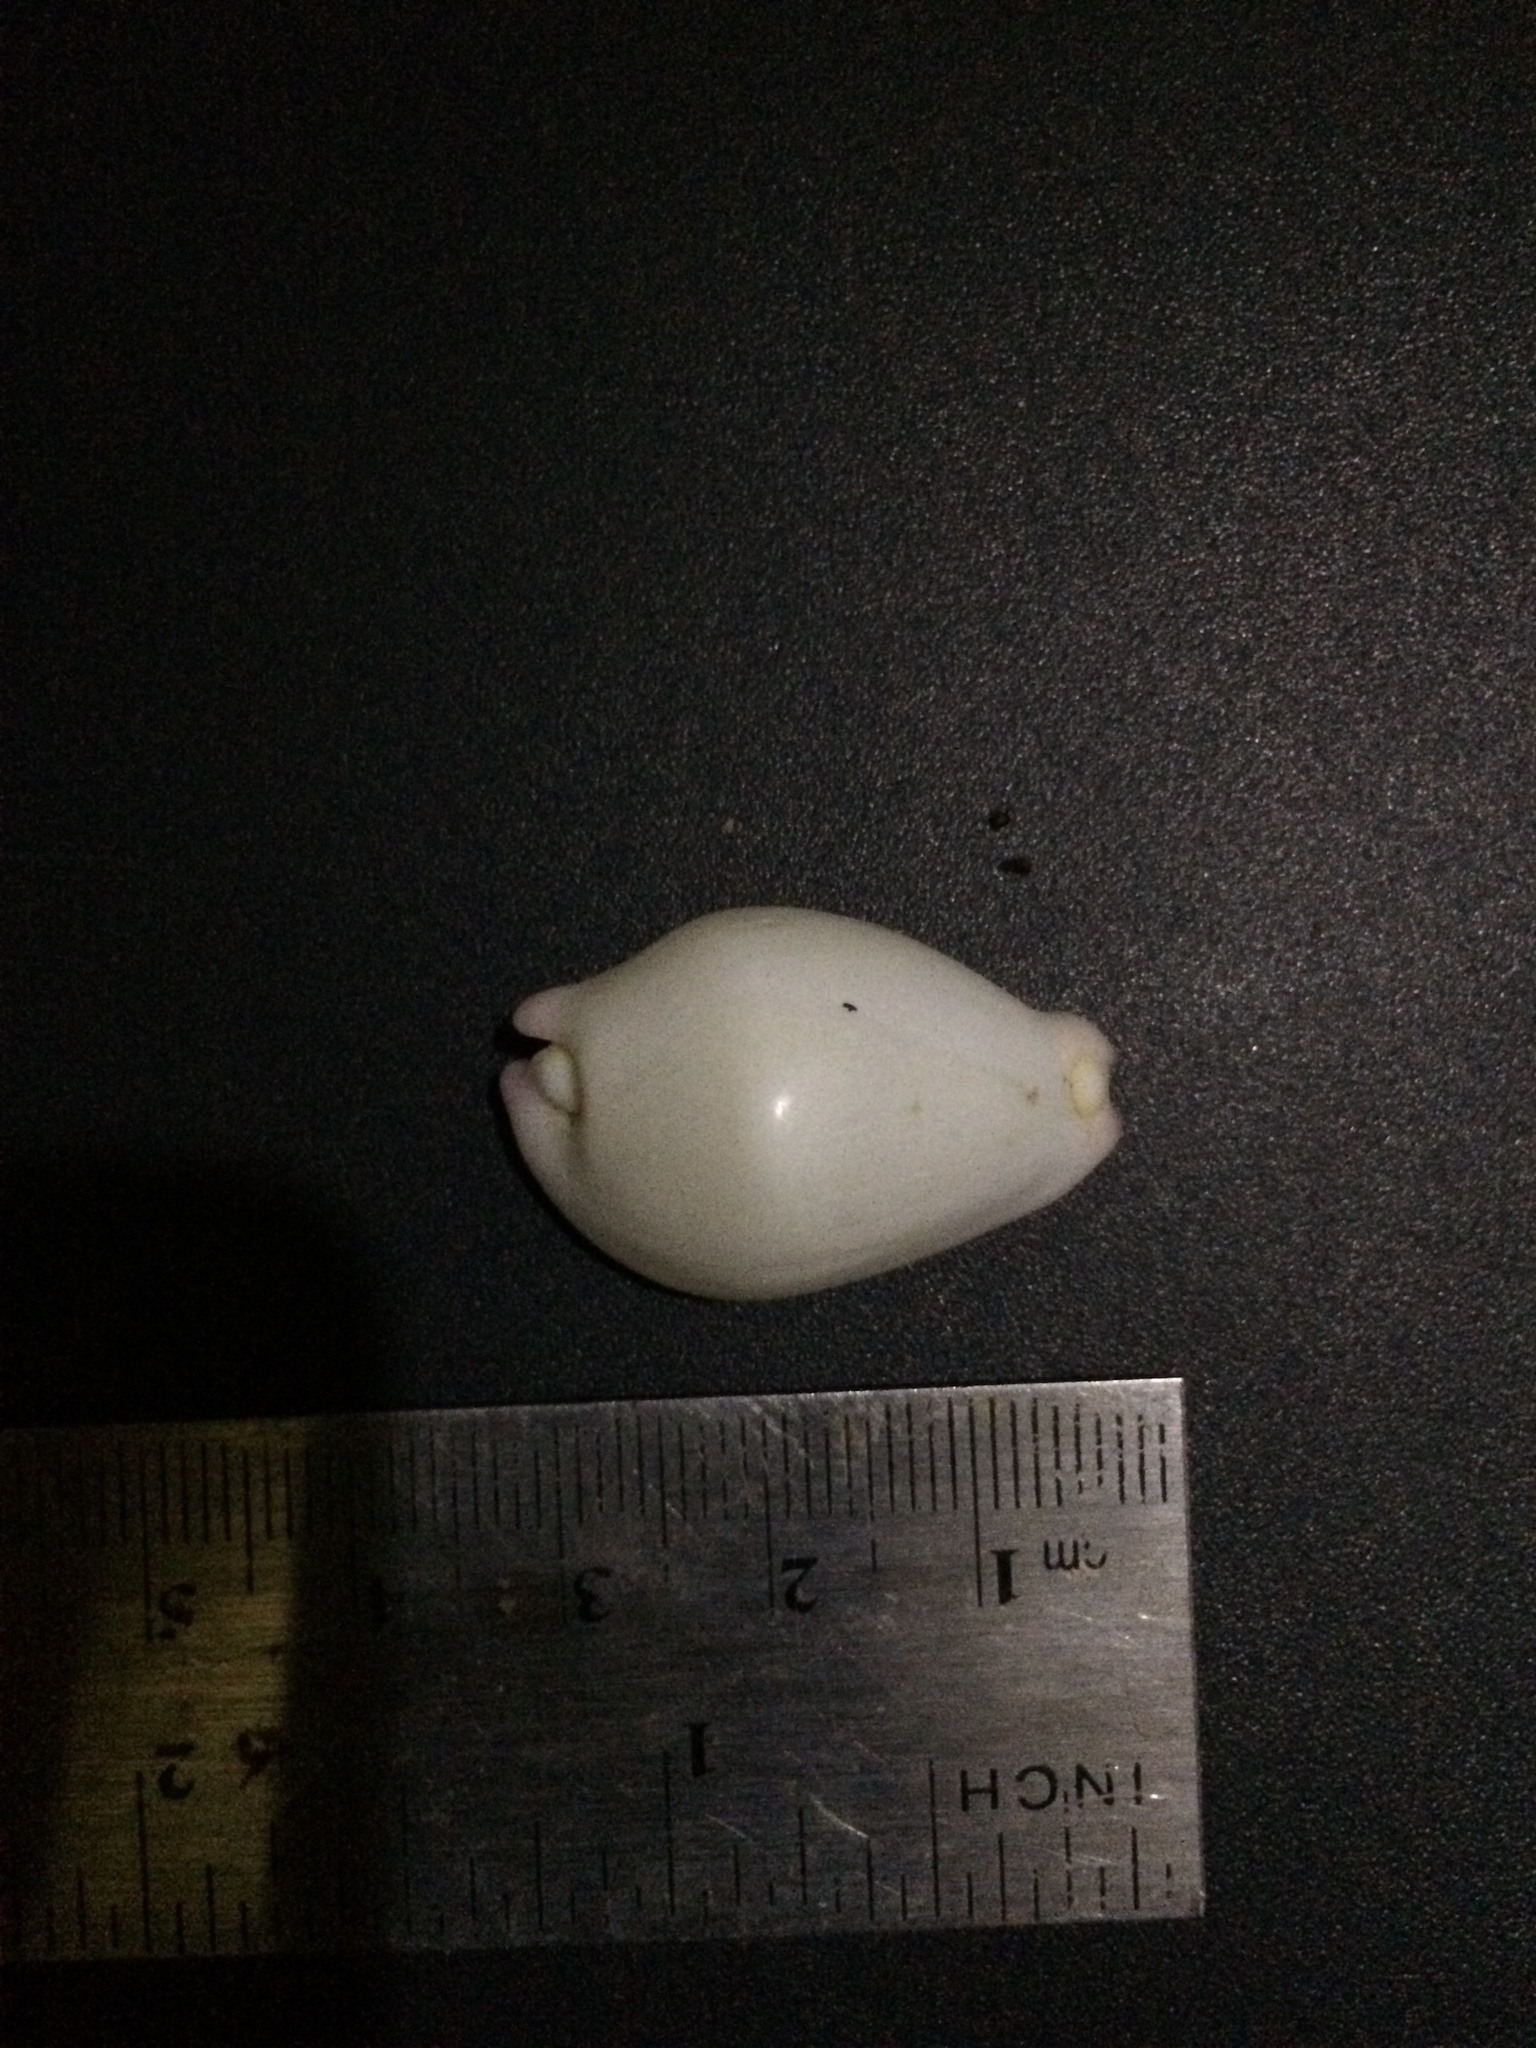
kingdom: Animalia
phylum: Mollusca
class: Gastropoda
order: Littorinimorpha
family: Ovulidae
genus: Calpurnus
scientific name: Calpurnus verrucosus
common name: Common calpurnus
